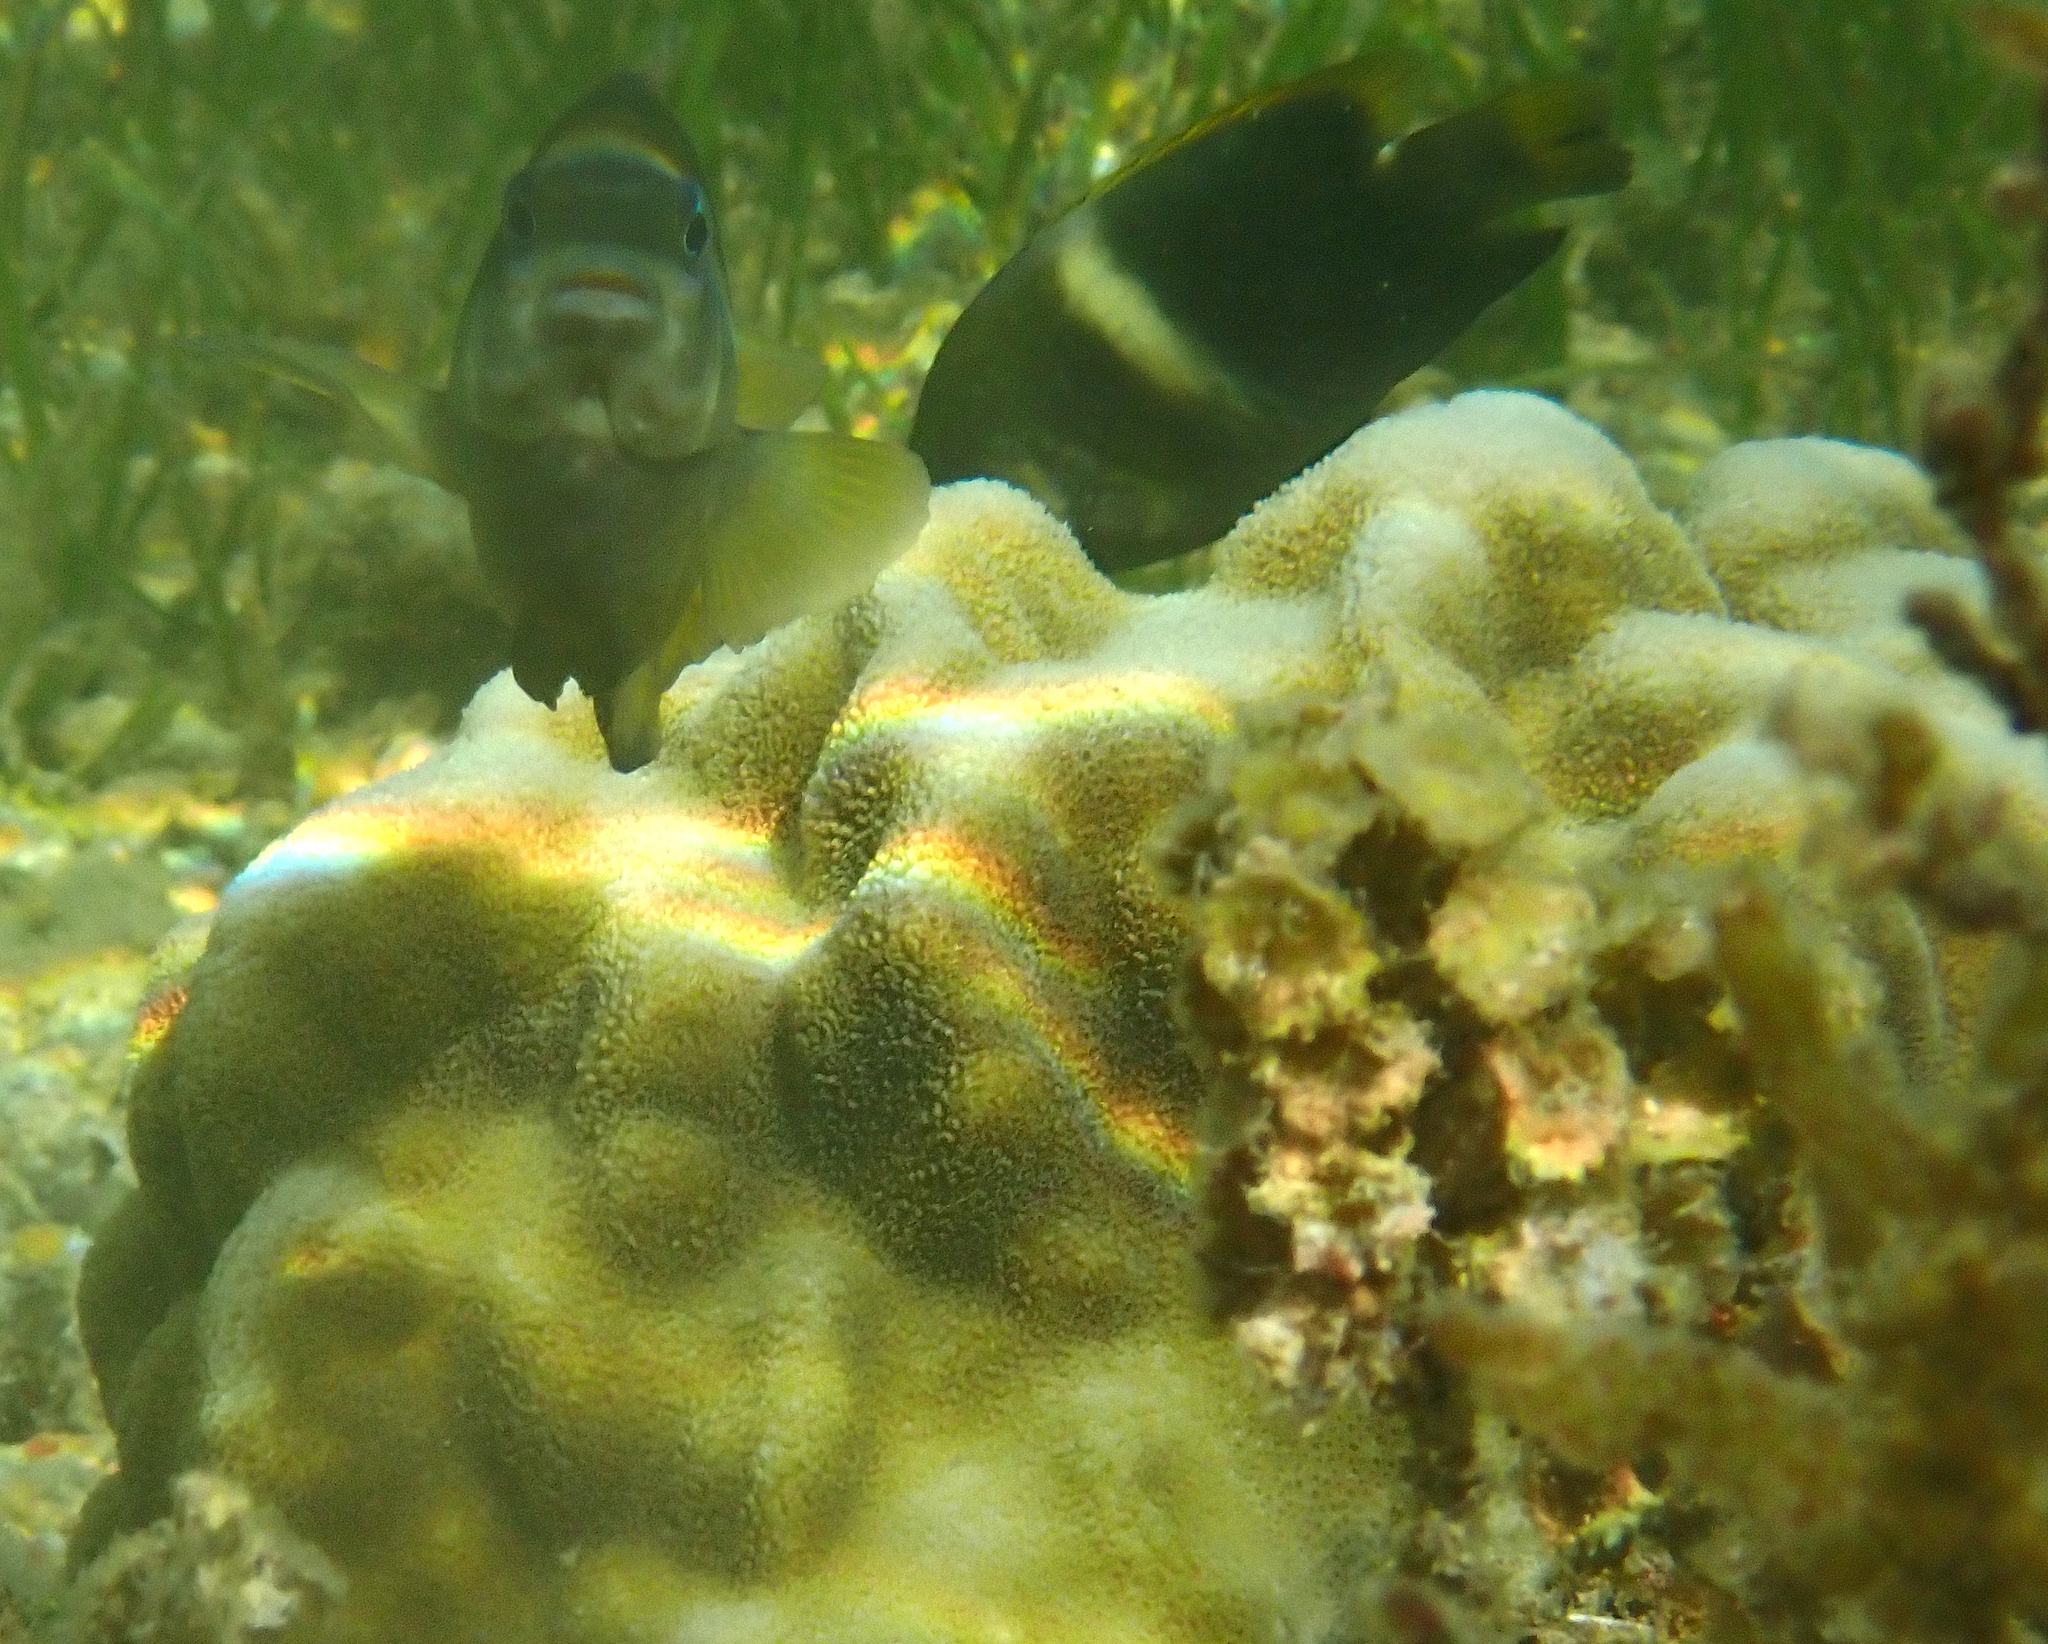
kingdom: Animalia
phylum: Chordata
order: Perciformes
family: Pomacentridae
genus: Chrysiptera
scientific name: Chrysiptera biocellata
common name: Twinspot damselfish
